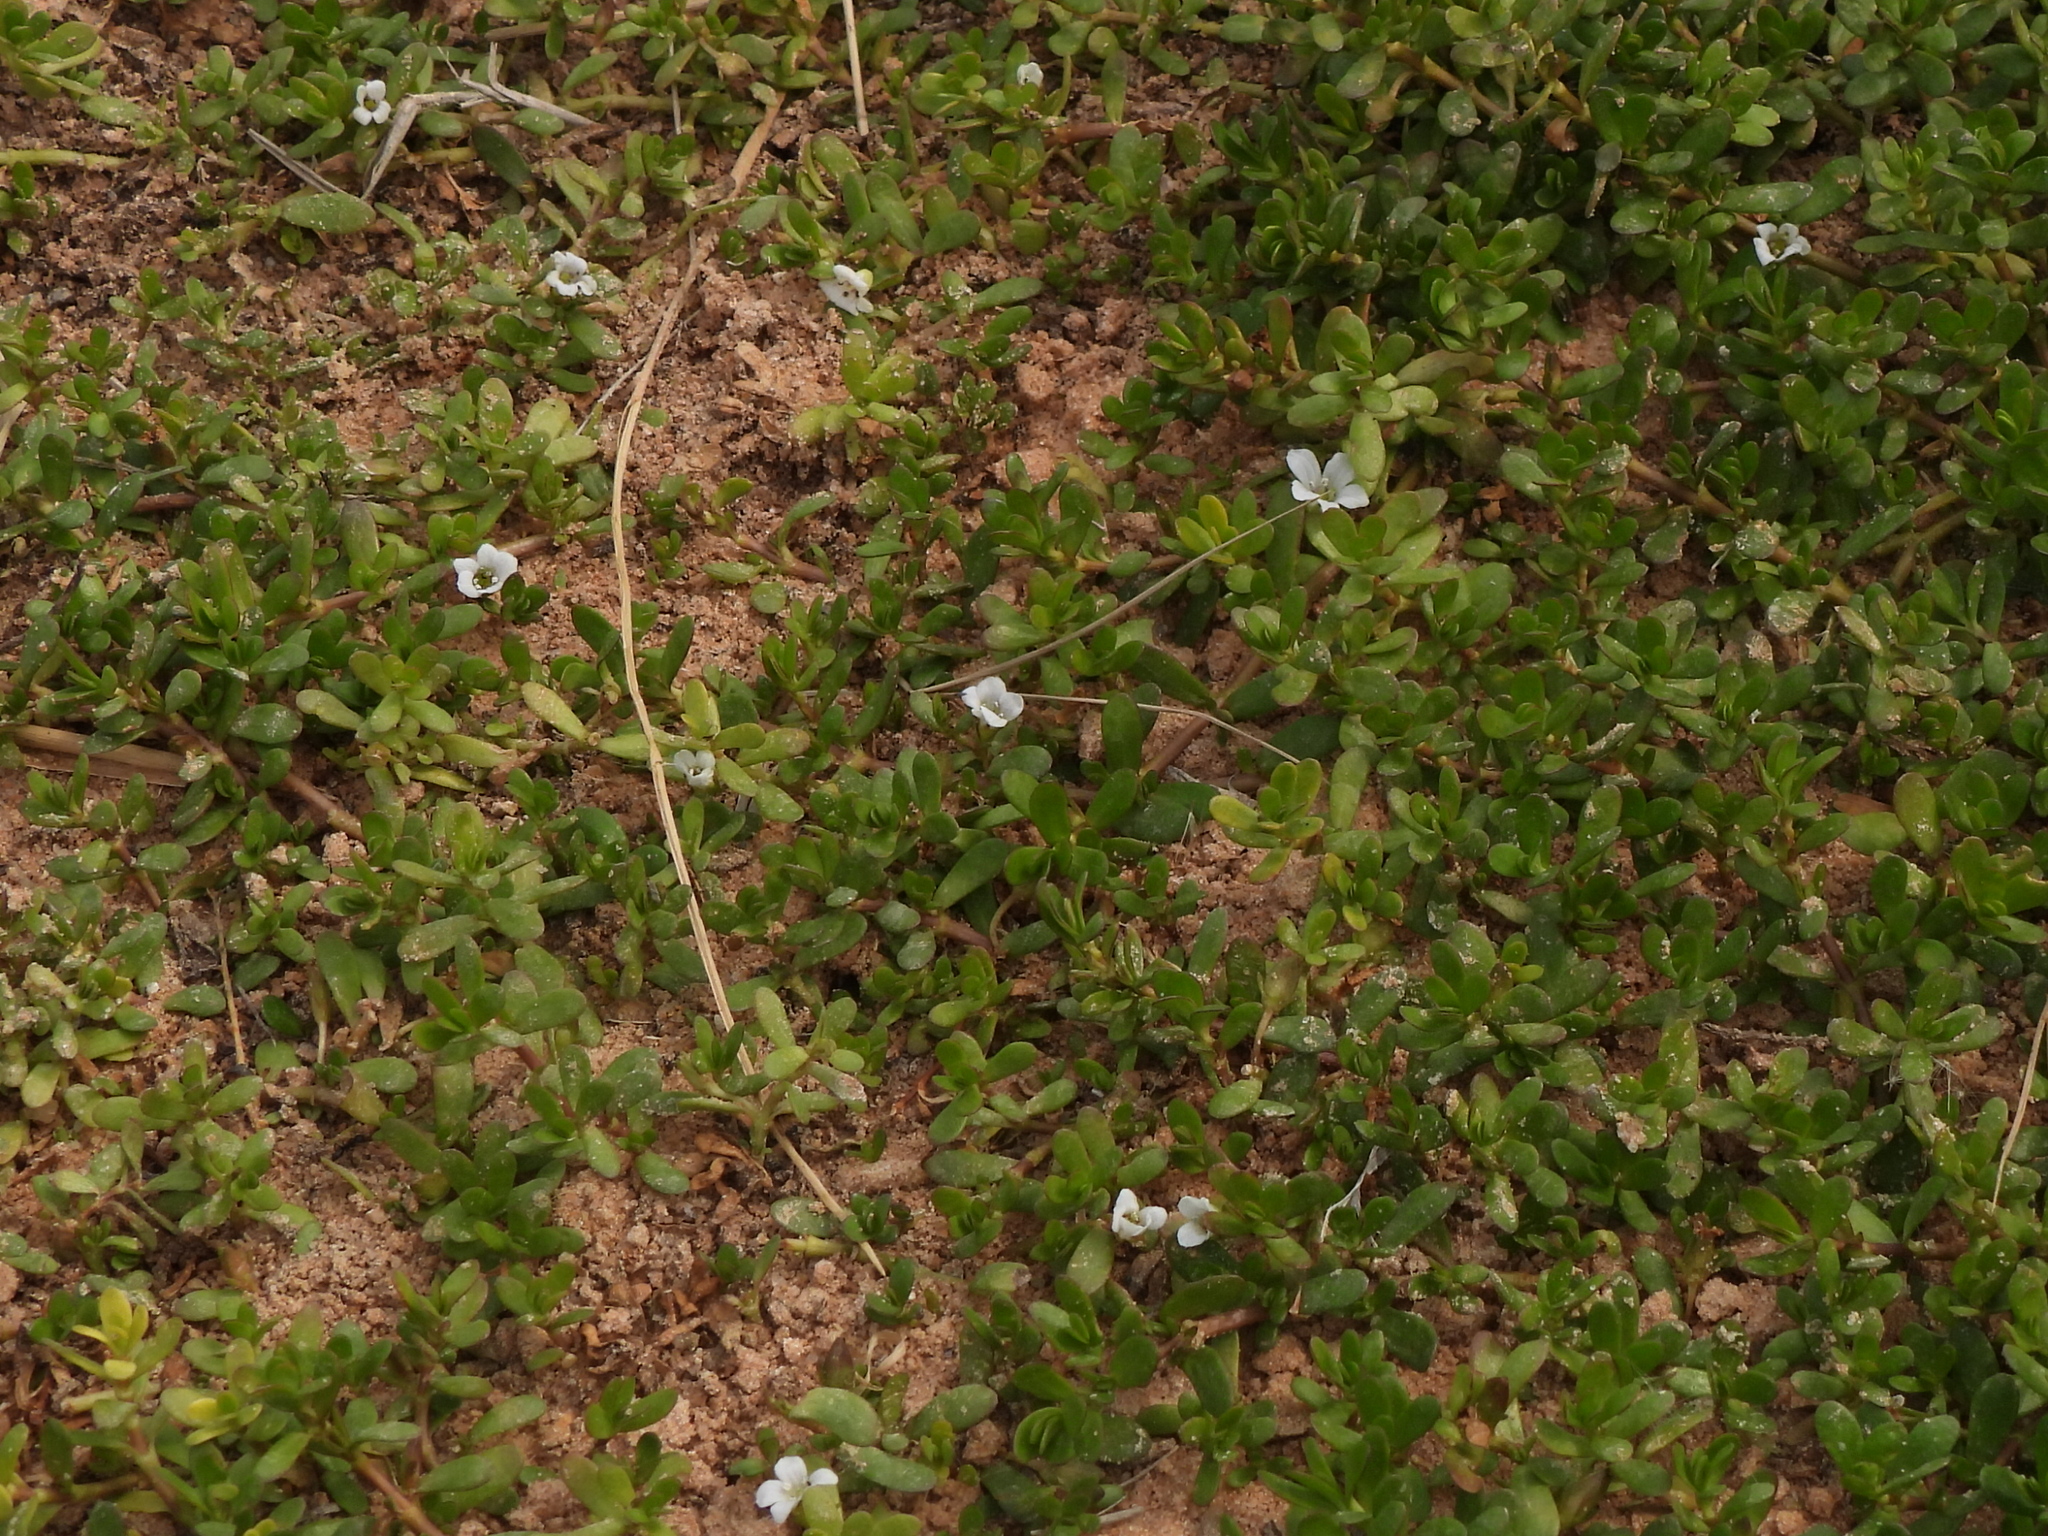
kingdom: Plantae
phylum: Tracheophyta
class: Magnoliopsida
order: Lamiales
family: Plantaginaceae
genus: Bacopa
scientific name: Bacopa monnieri
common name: Indian-pennywort
